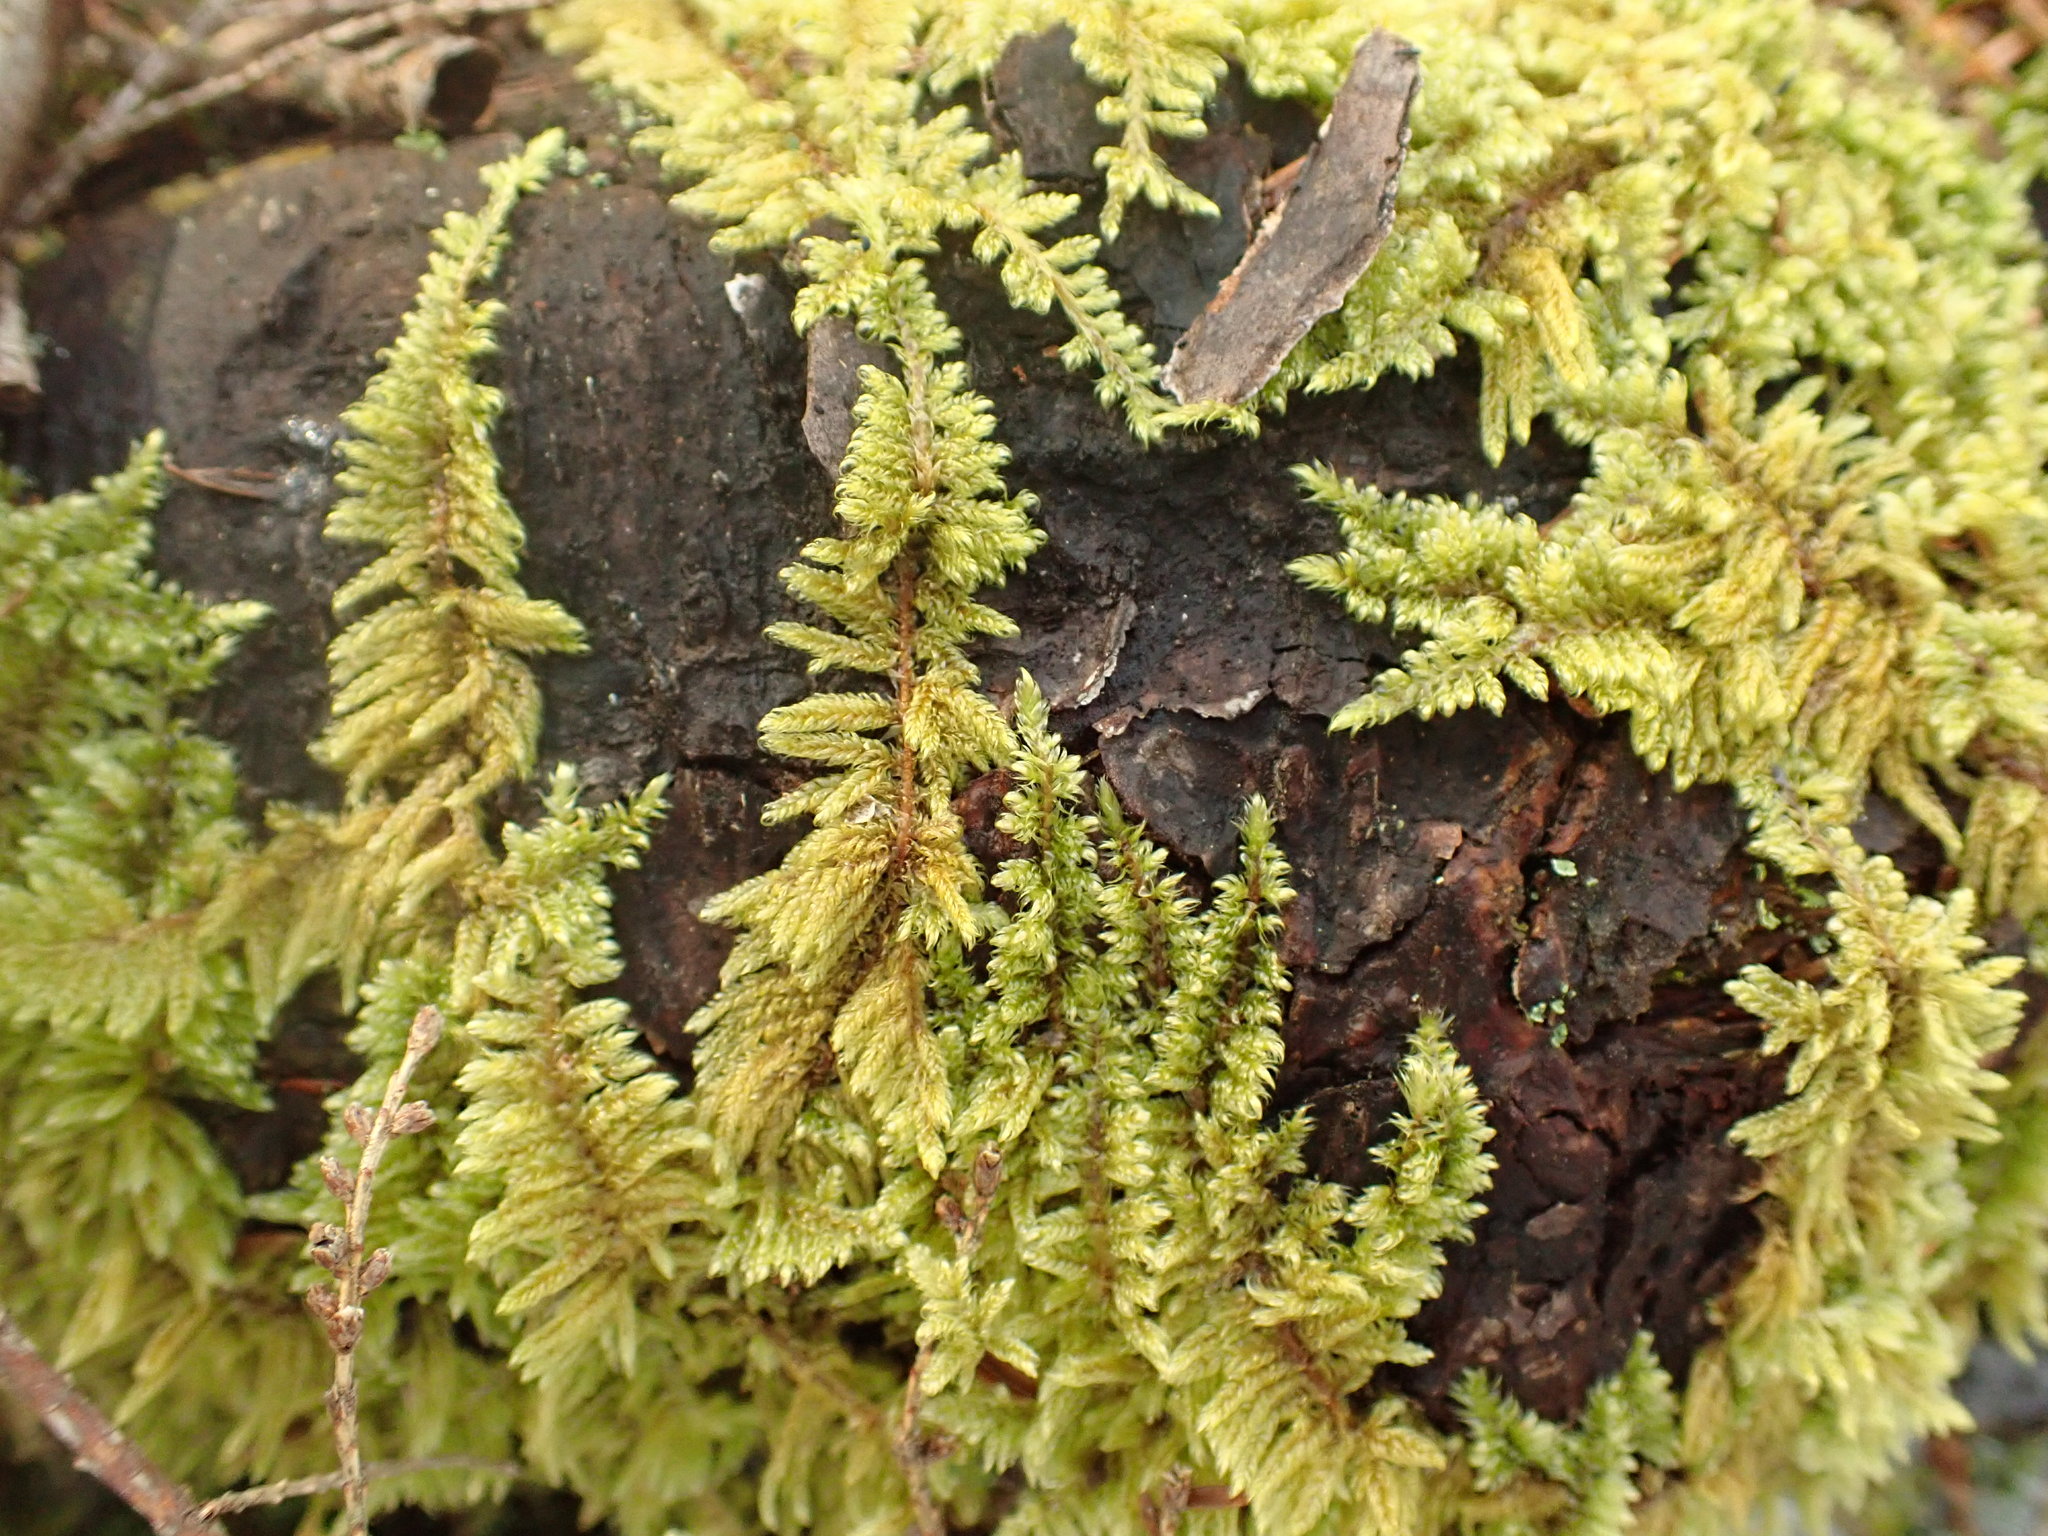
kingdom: Plantae
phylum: Bryophyta
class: Bryopsida
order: Hypnales
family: Callicladiaceae
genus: Callicladium
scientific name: Callicladium imponens
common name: Brocade moss
